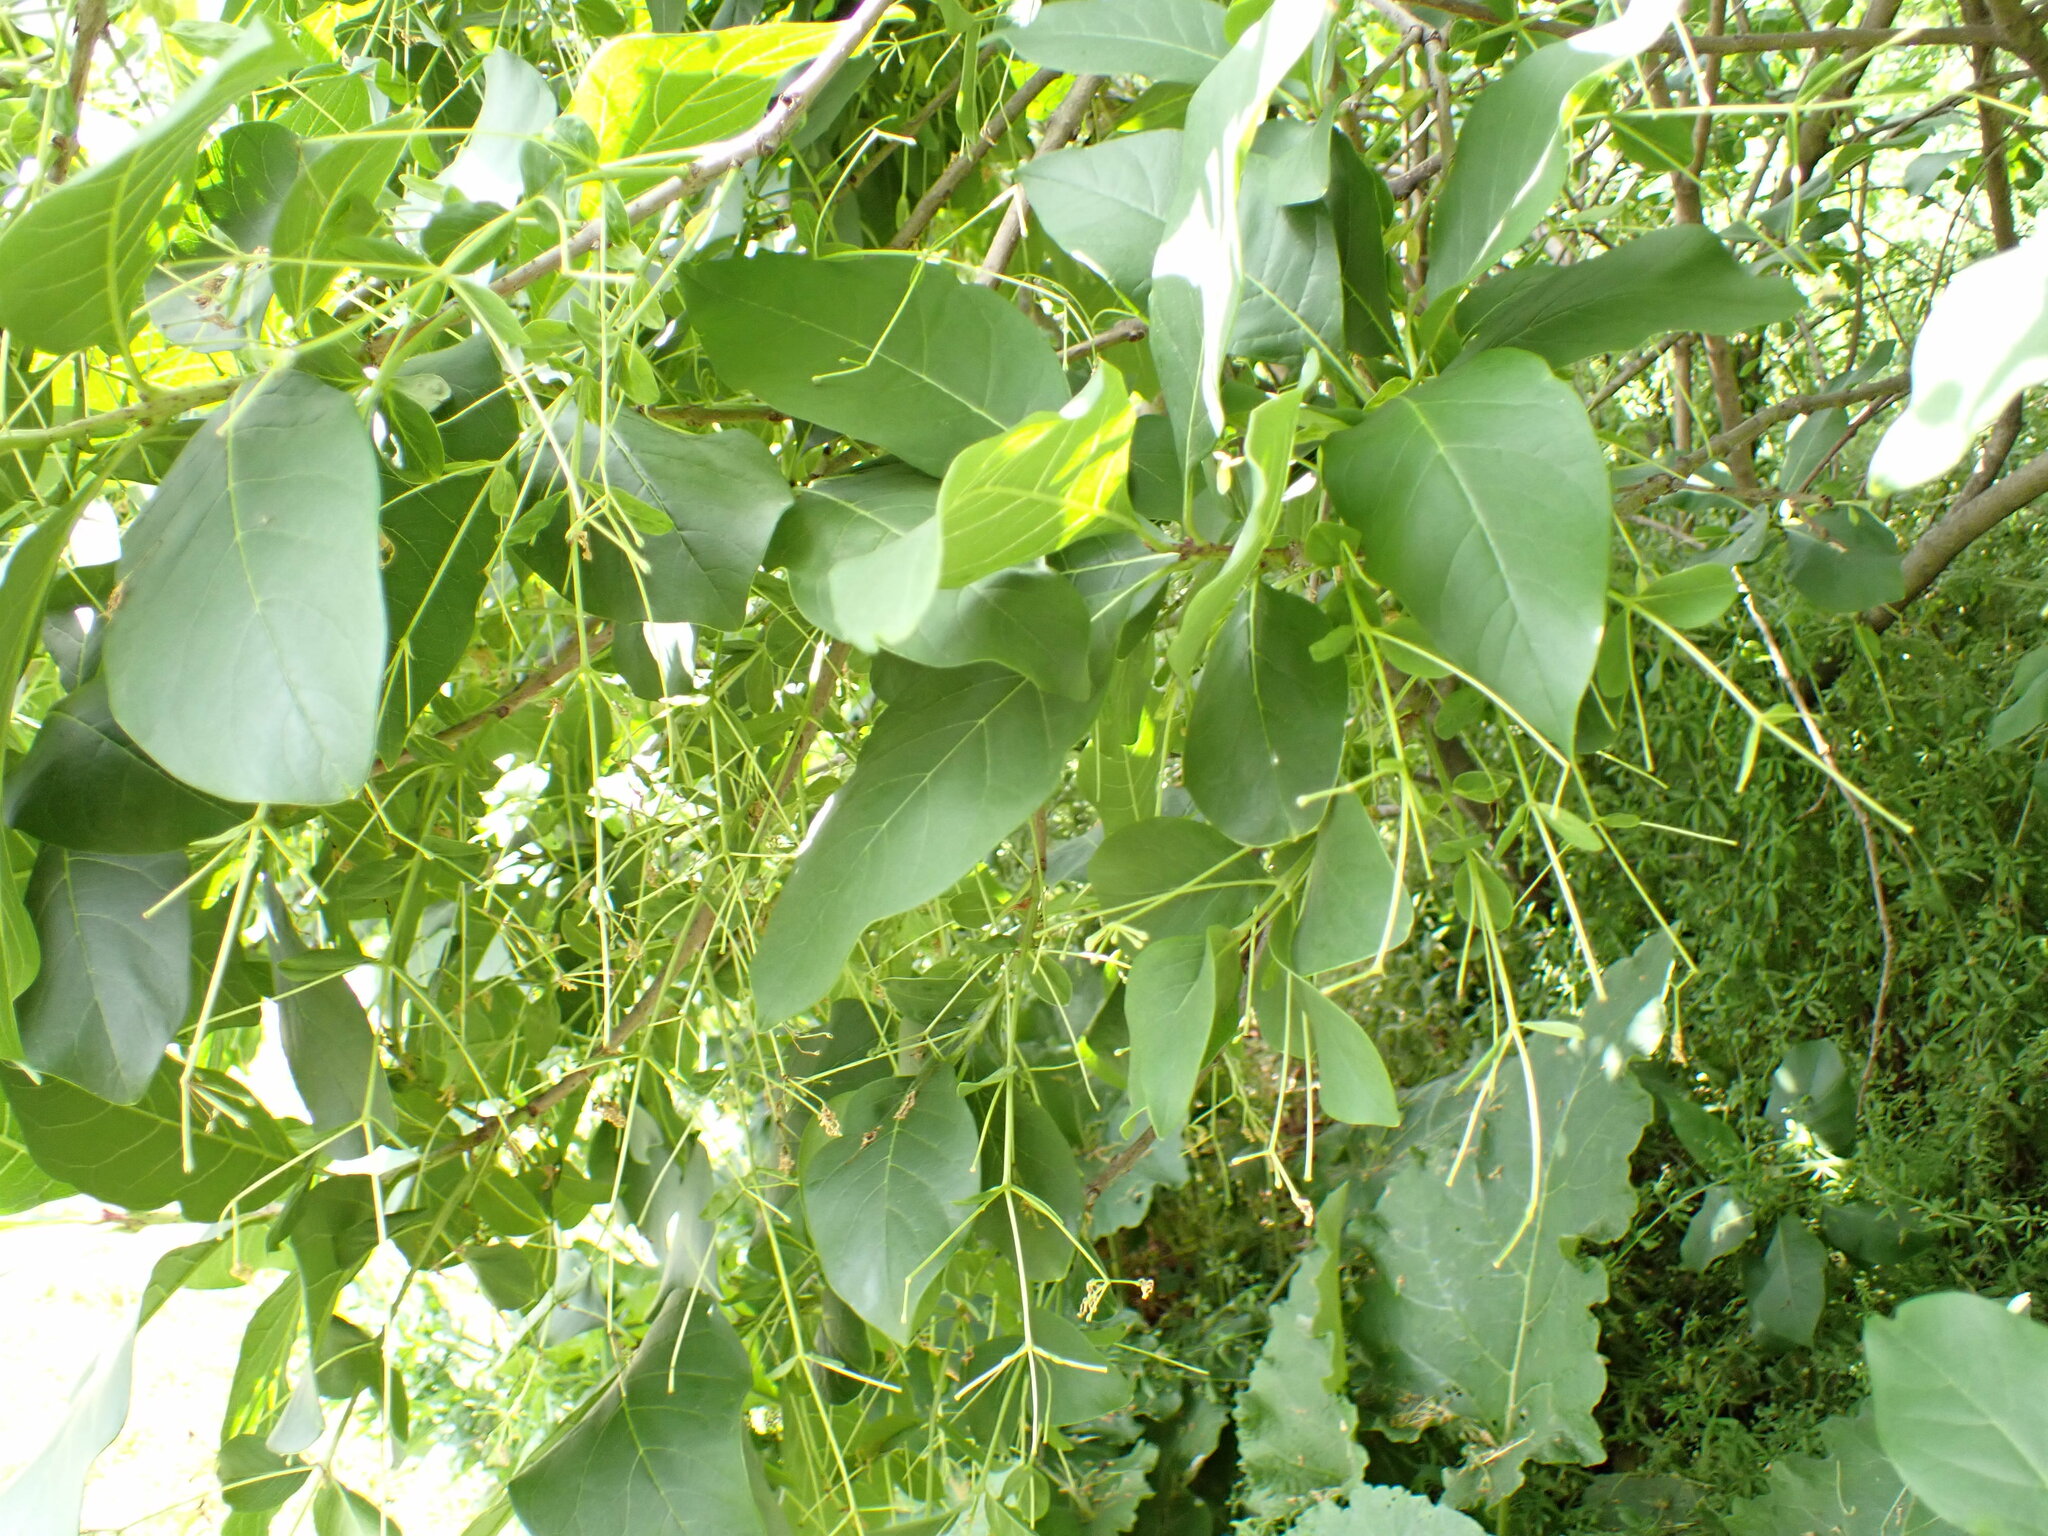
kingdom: Plantae
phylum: Tracheophyta
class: Magnoliopsida
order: Lamiales
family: Oleaceae
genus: Chionanthus
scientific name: Chionanthus virginicus
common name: American fringetree
